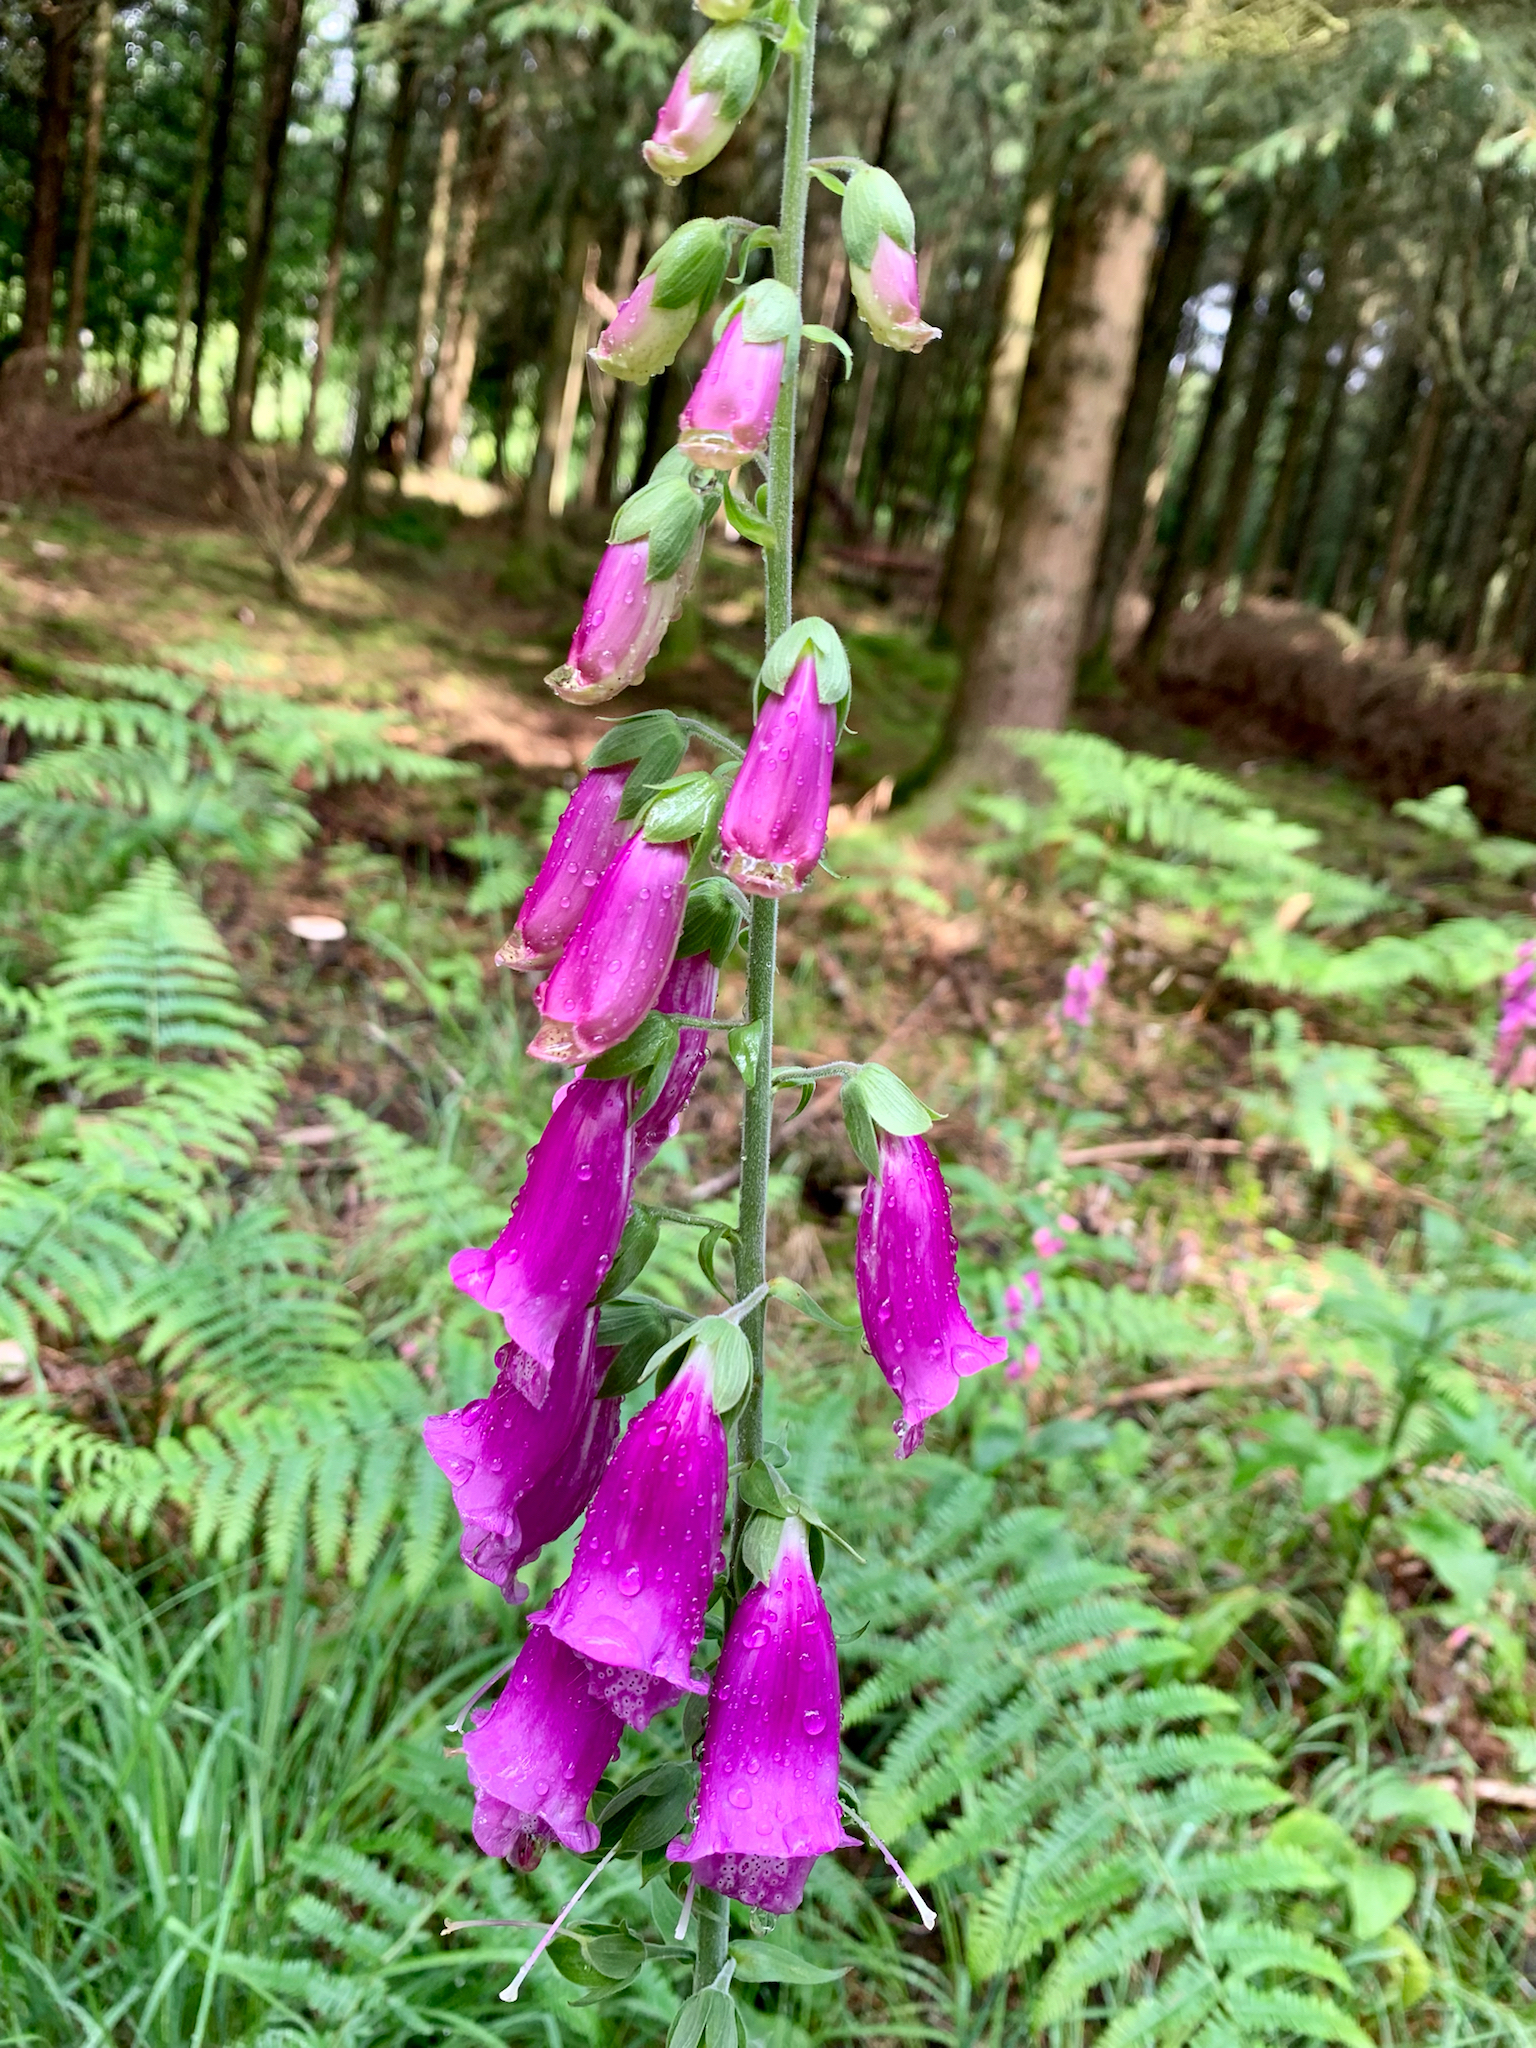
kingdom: Plantae
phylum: Tracheophyta
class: Magnoliopsida
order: Lamiales
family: Plantaginaceae
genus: Digitalis
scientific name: Digitalis purpurea
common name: Foxglove
